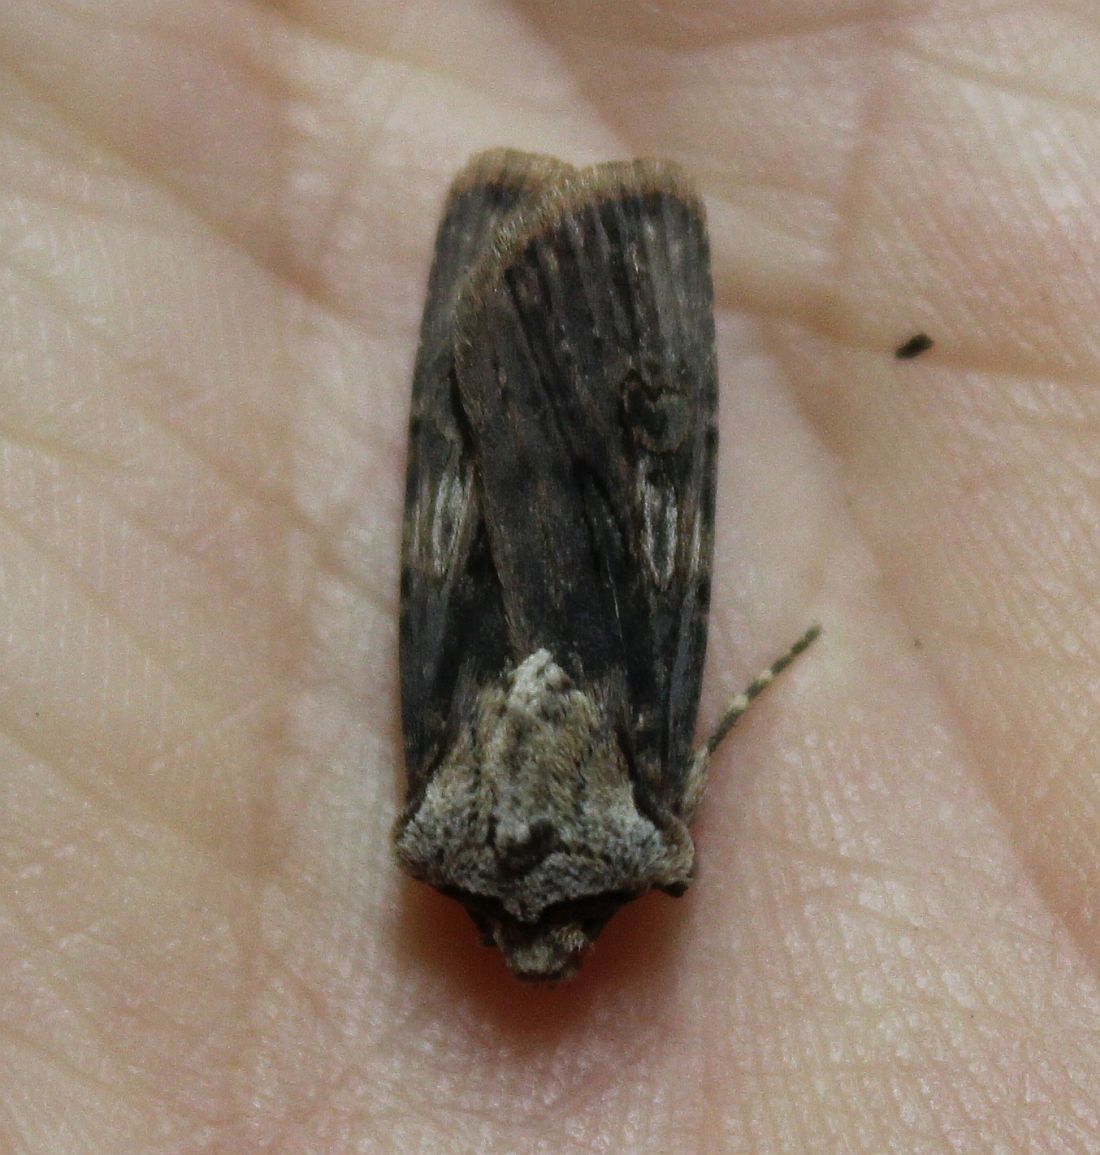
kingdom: Animalia
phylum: Arthropoda
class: Insecta
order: Lepidoptera
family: Noctuidae
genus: Agrotis
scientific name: Agrotis puta
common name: Shuttle-shaped dart
